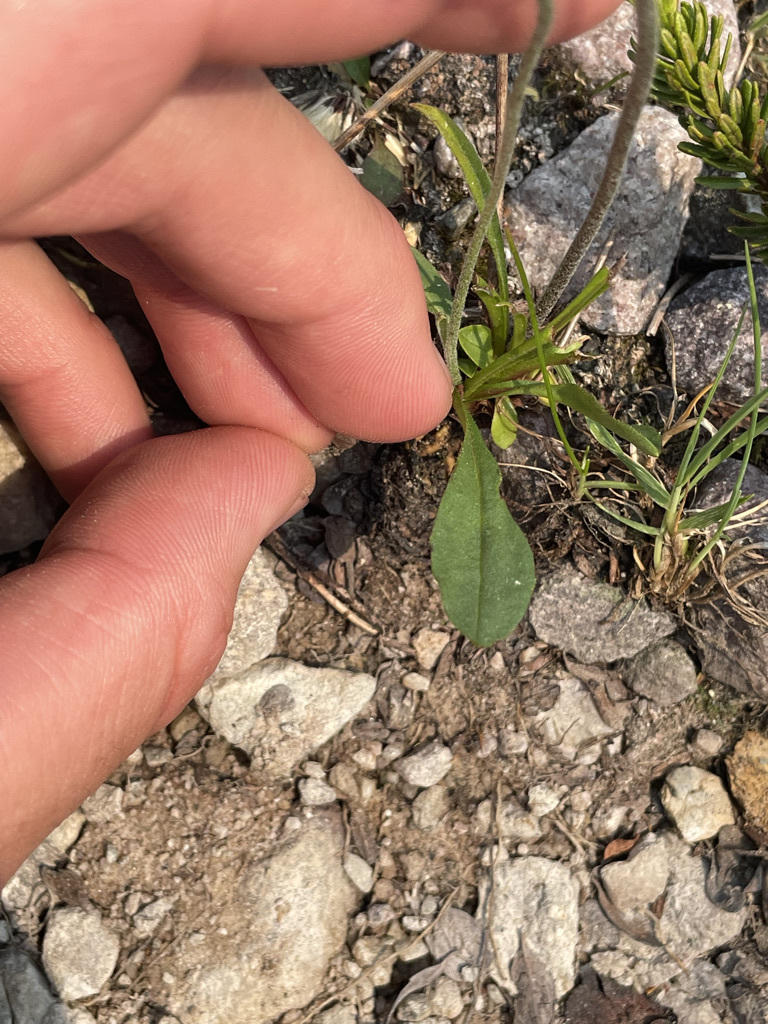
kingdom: Plantae
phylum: Tracheophyta
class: Magnoliopsida
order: Asterales
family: Asteraceae
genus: Hieracium
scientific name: Hieracium triste
